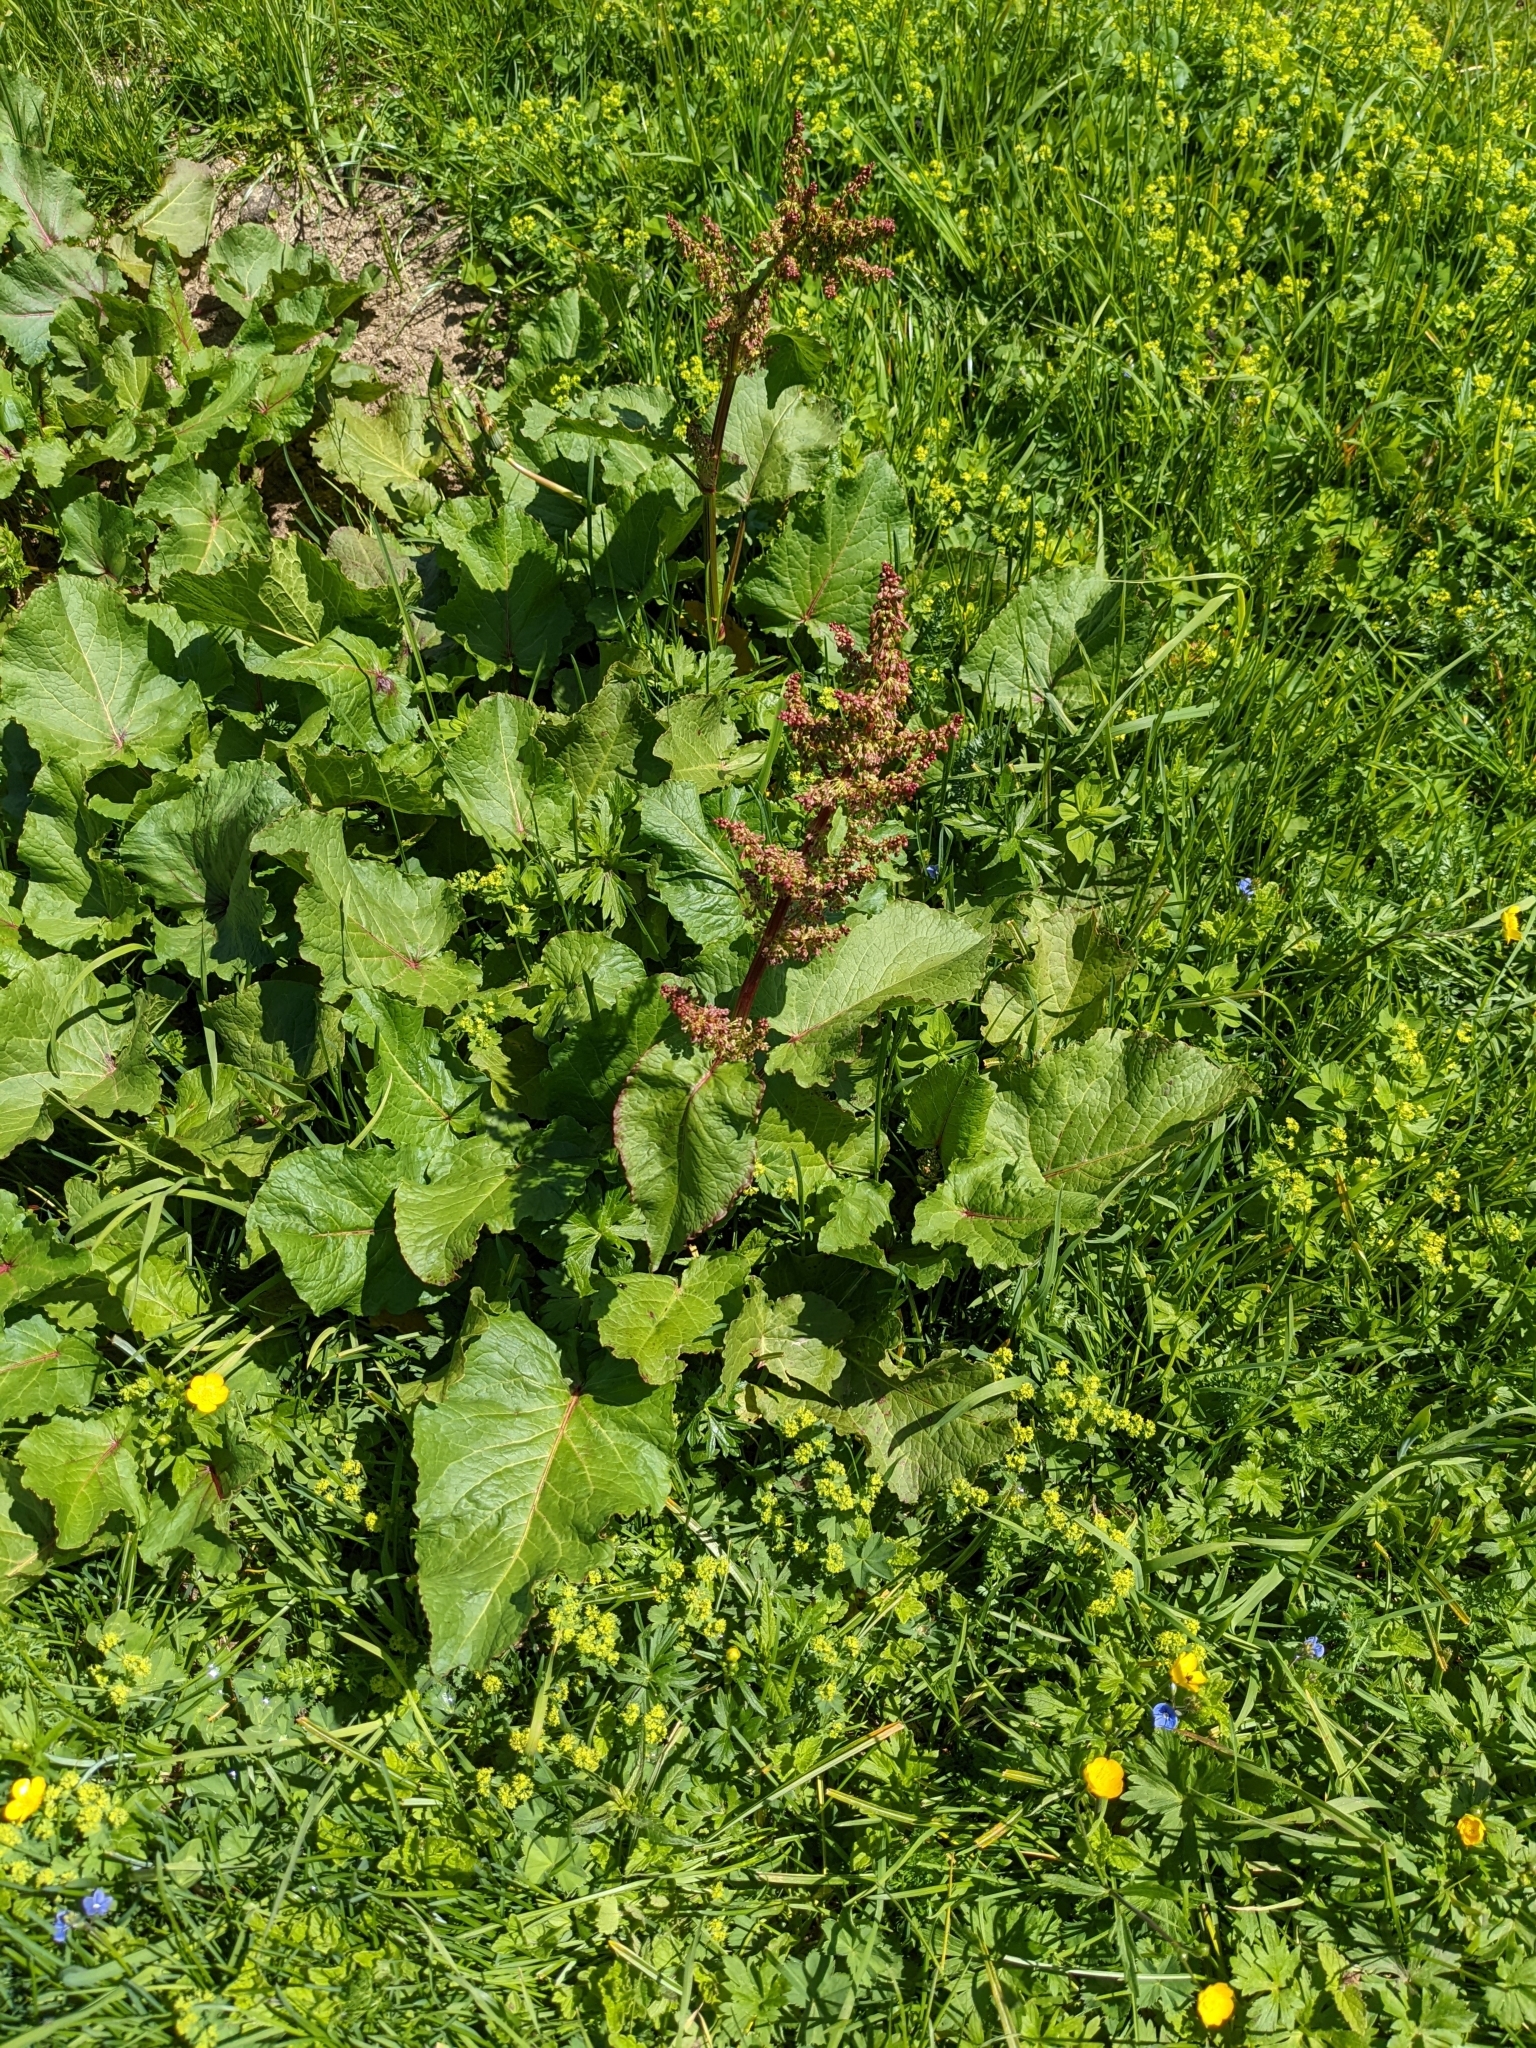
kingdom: Plantae
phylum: Tracheophyta
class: Magnoliopsida
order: Caryophyllales
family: Polygonaceae
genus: Rumex
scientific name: Rumex alpinus
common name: Alpine dock
